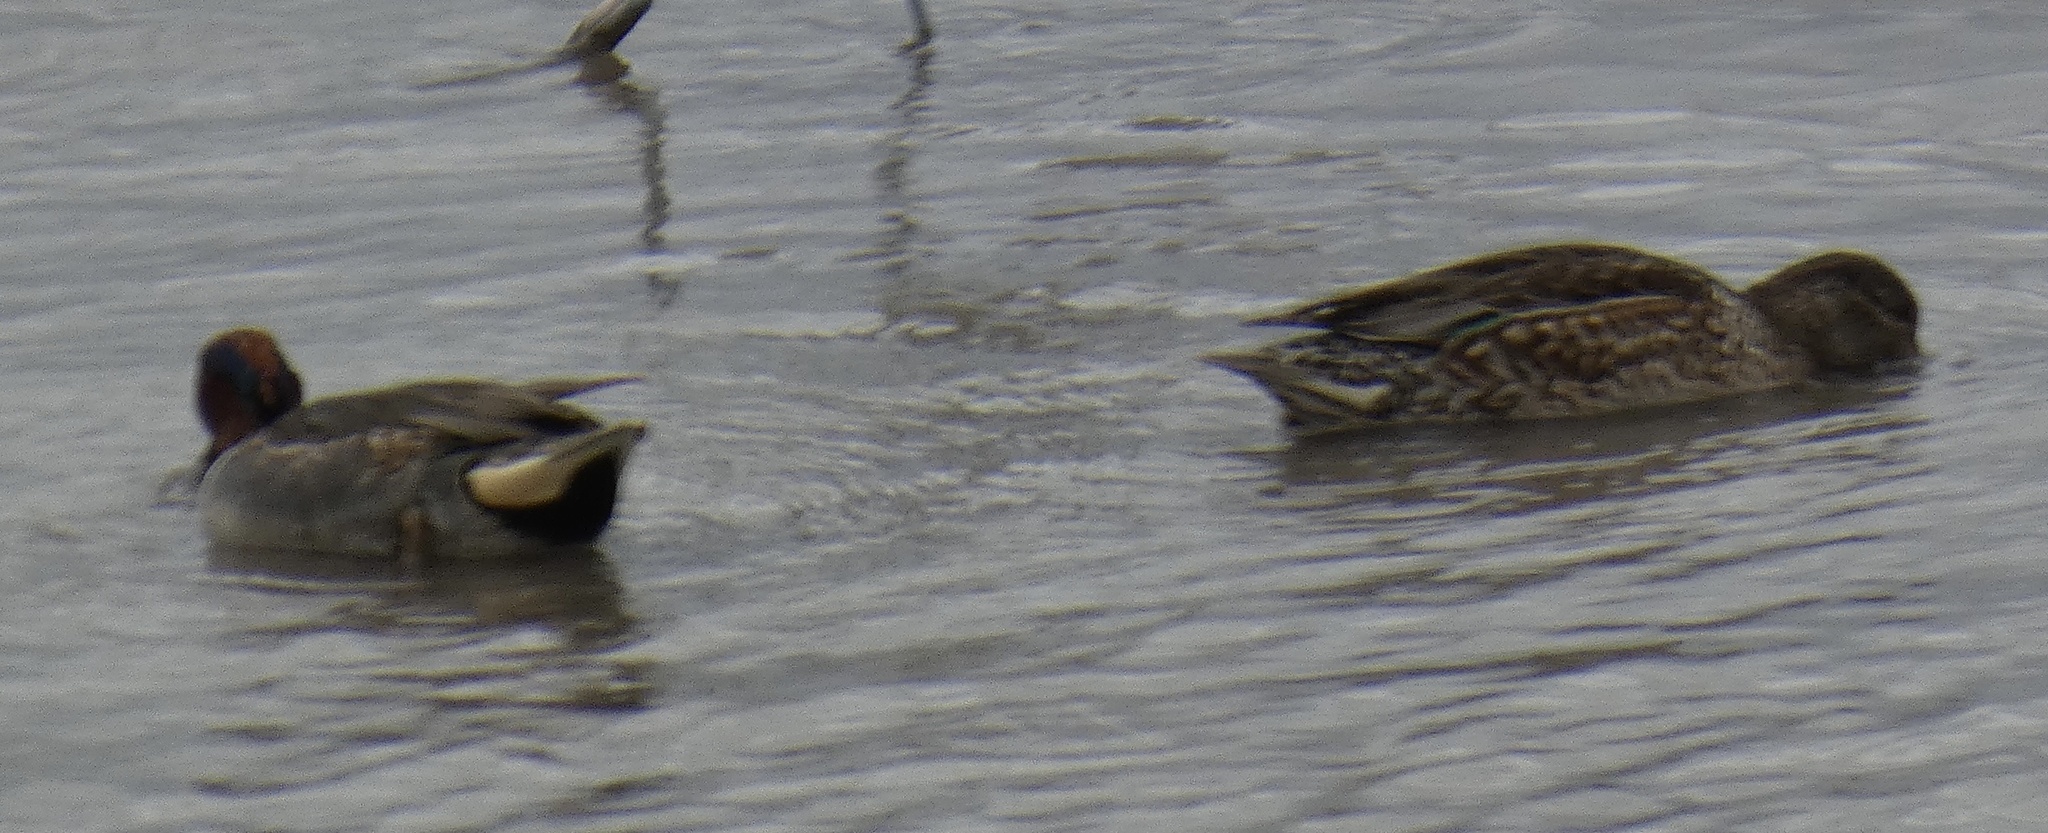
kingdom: Animalia
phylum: Chordata
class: Aves
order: Anseriformes
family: Anatidae
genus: Anas
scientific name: Anas carolinensis
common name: Green-winged teal
